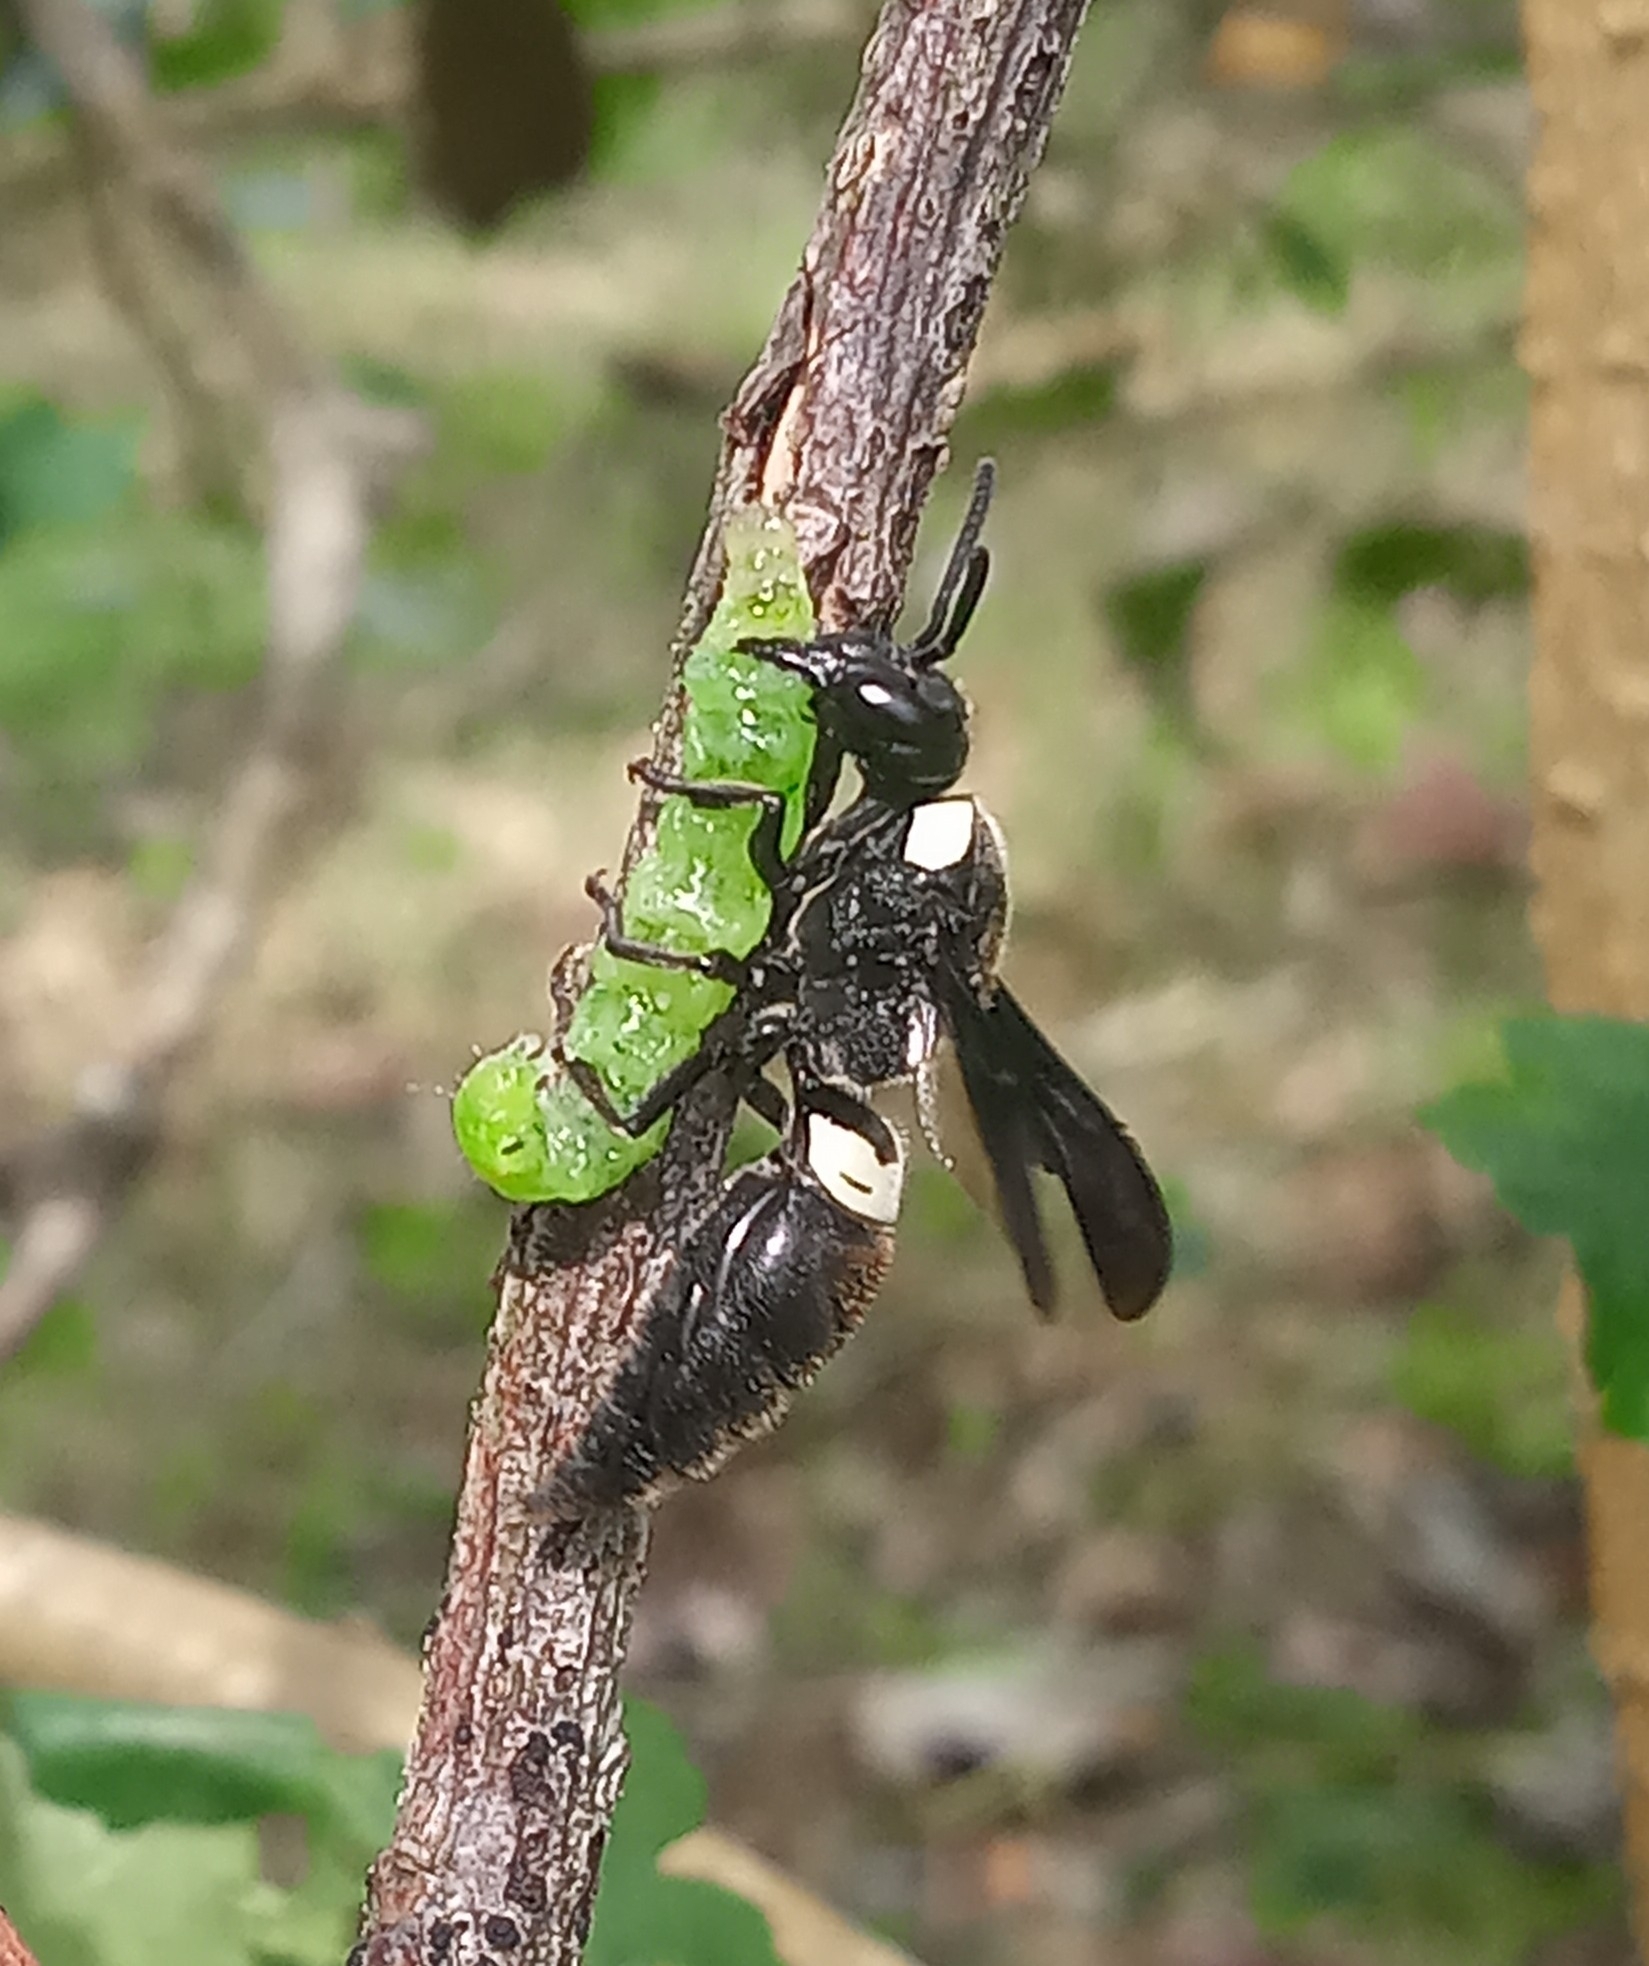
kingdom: Animalia
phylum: Arthropoda
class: Insecta
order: Hymenoptera
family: Eumenidae
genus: Monobia
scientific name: Monobia quadridens
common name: Four-toothed mason wasp
